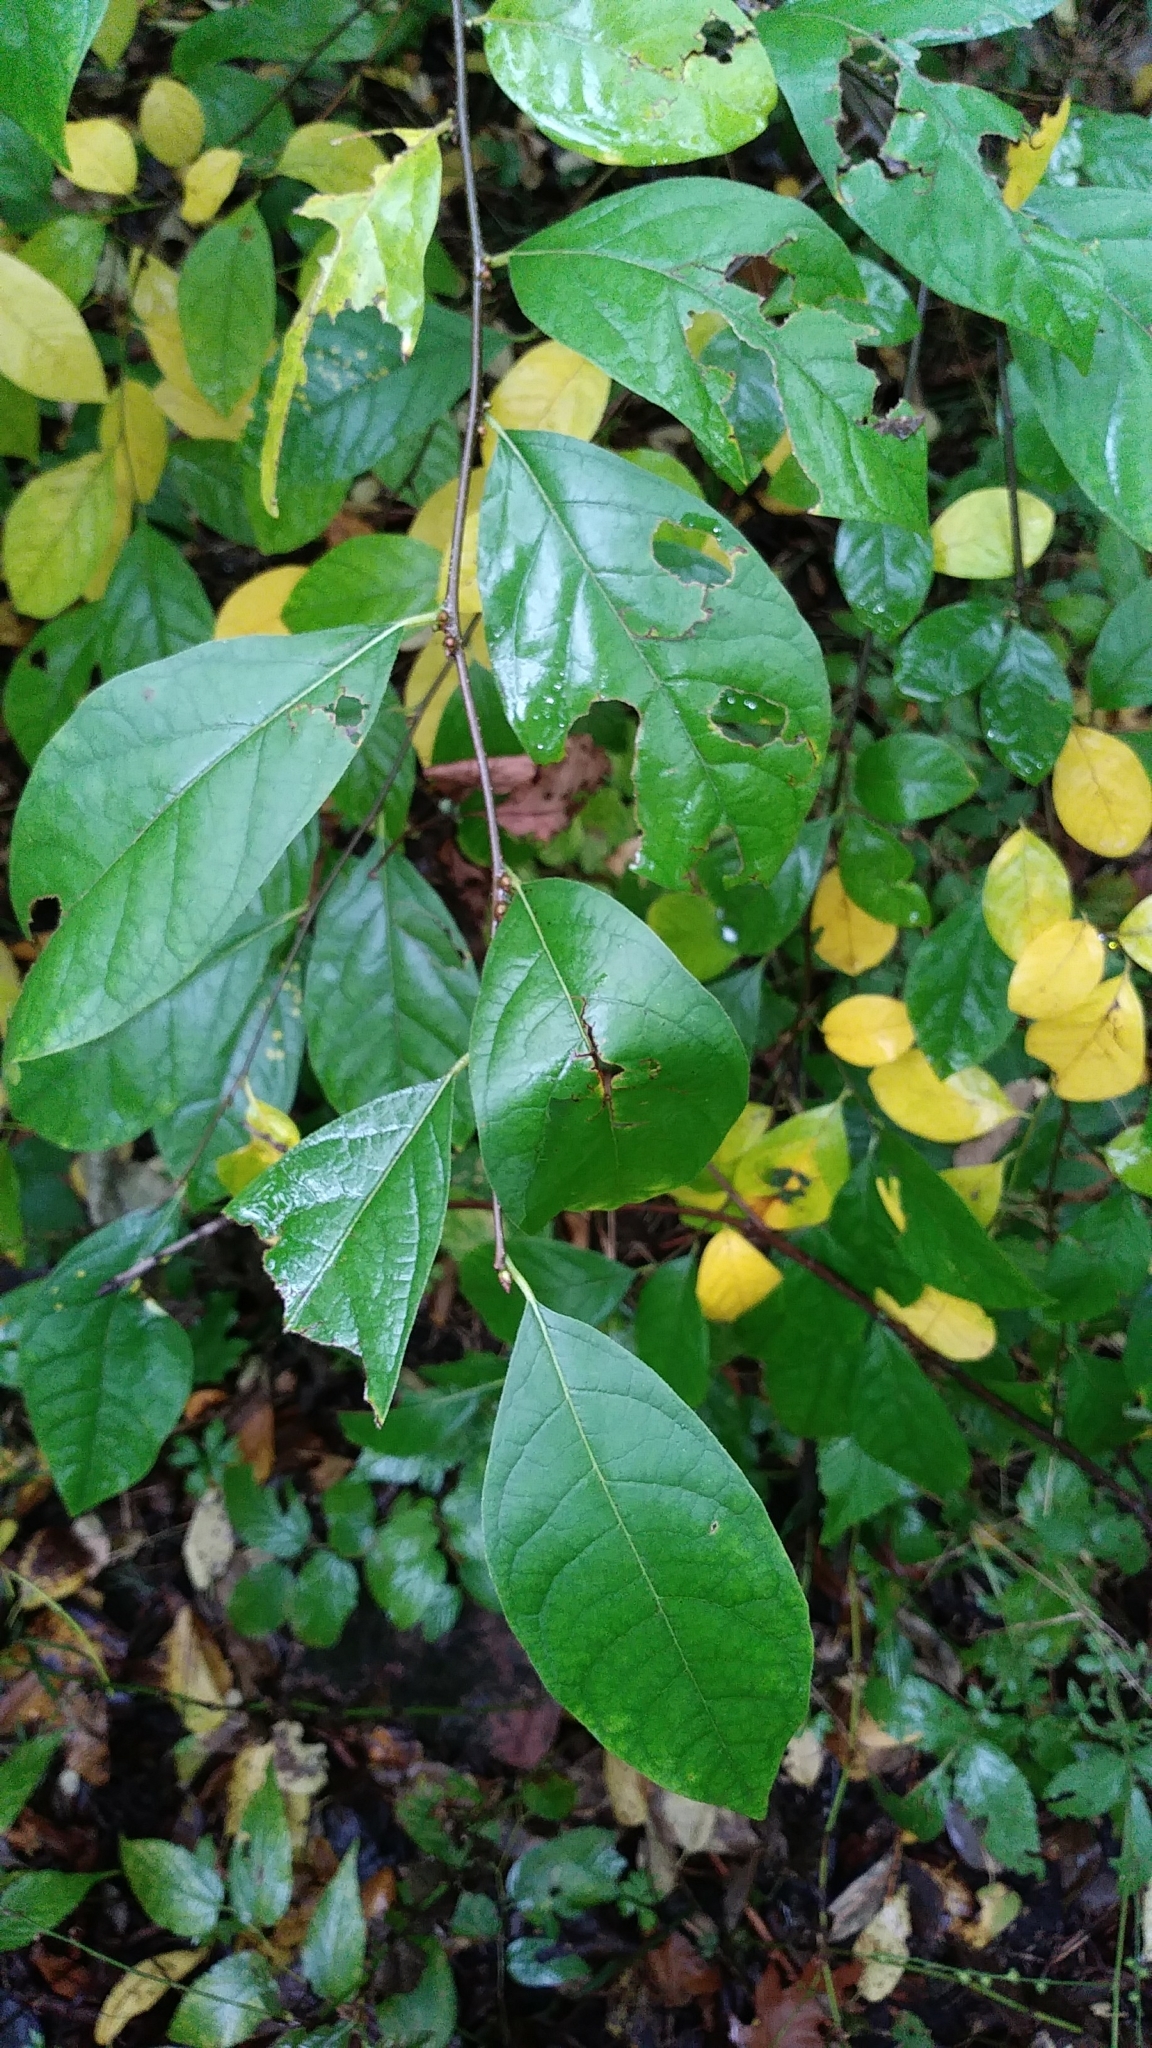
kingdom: Plantae
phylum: Tracheophyta
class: Magnoliopsida
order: Laurales
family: Lauraceae
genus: Lindera
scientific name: Lindera benzoin
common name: Spicebush
